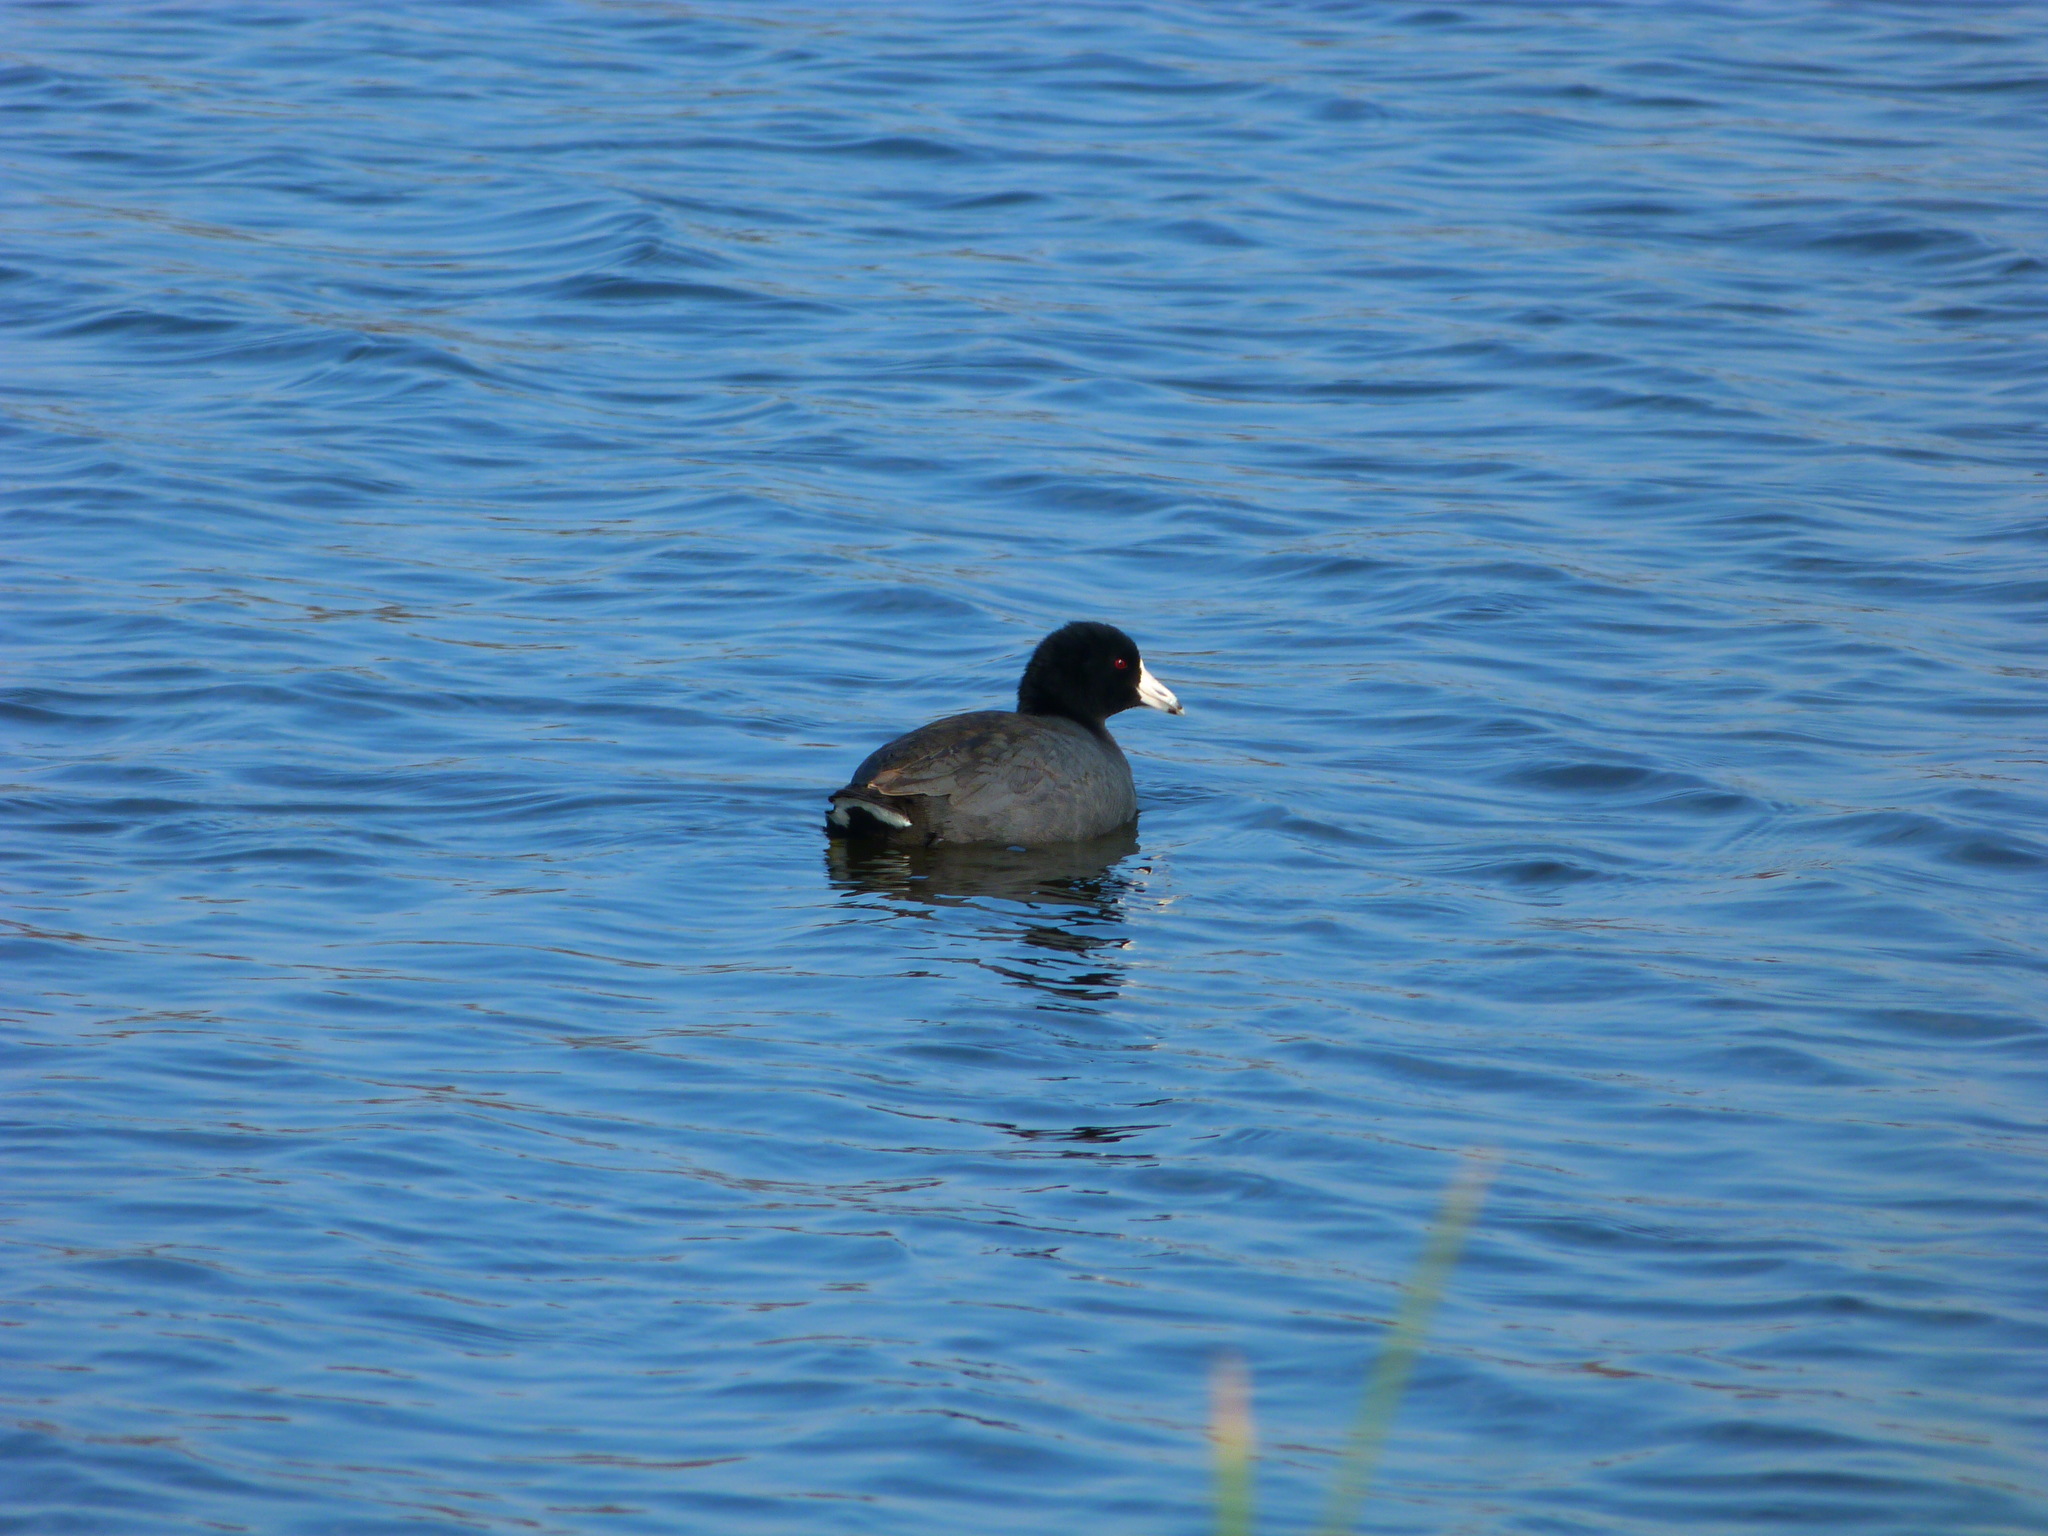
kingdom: Animalia
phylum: Chordata
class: Aves
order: Gruiformes
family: Rallidae
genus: Fulica
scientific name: Fulica americana
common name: American coot
